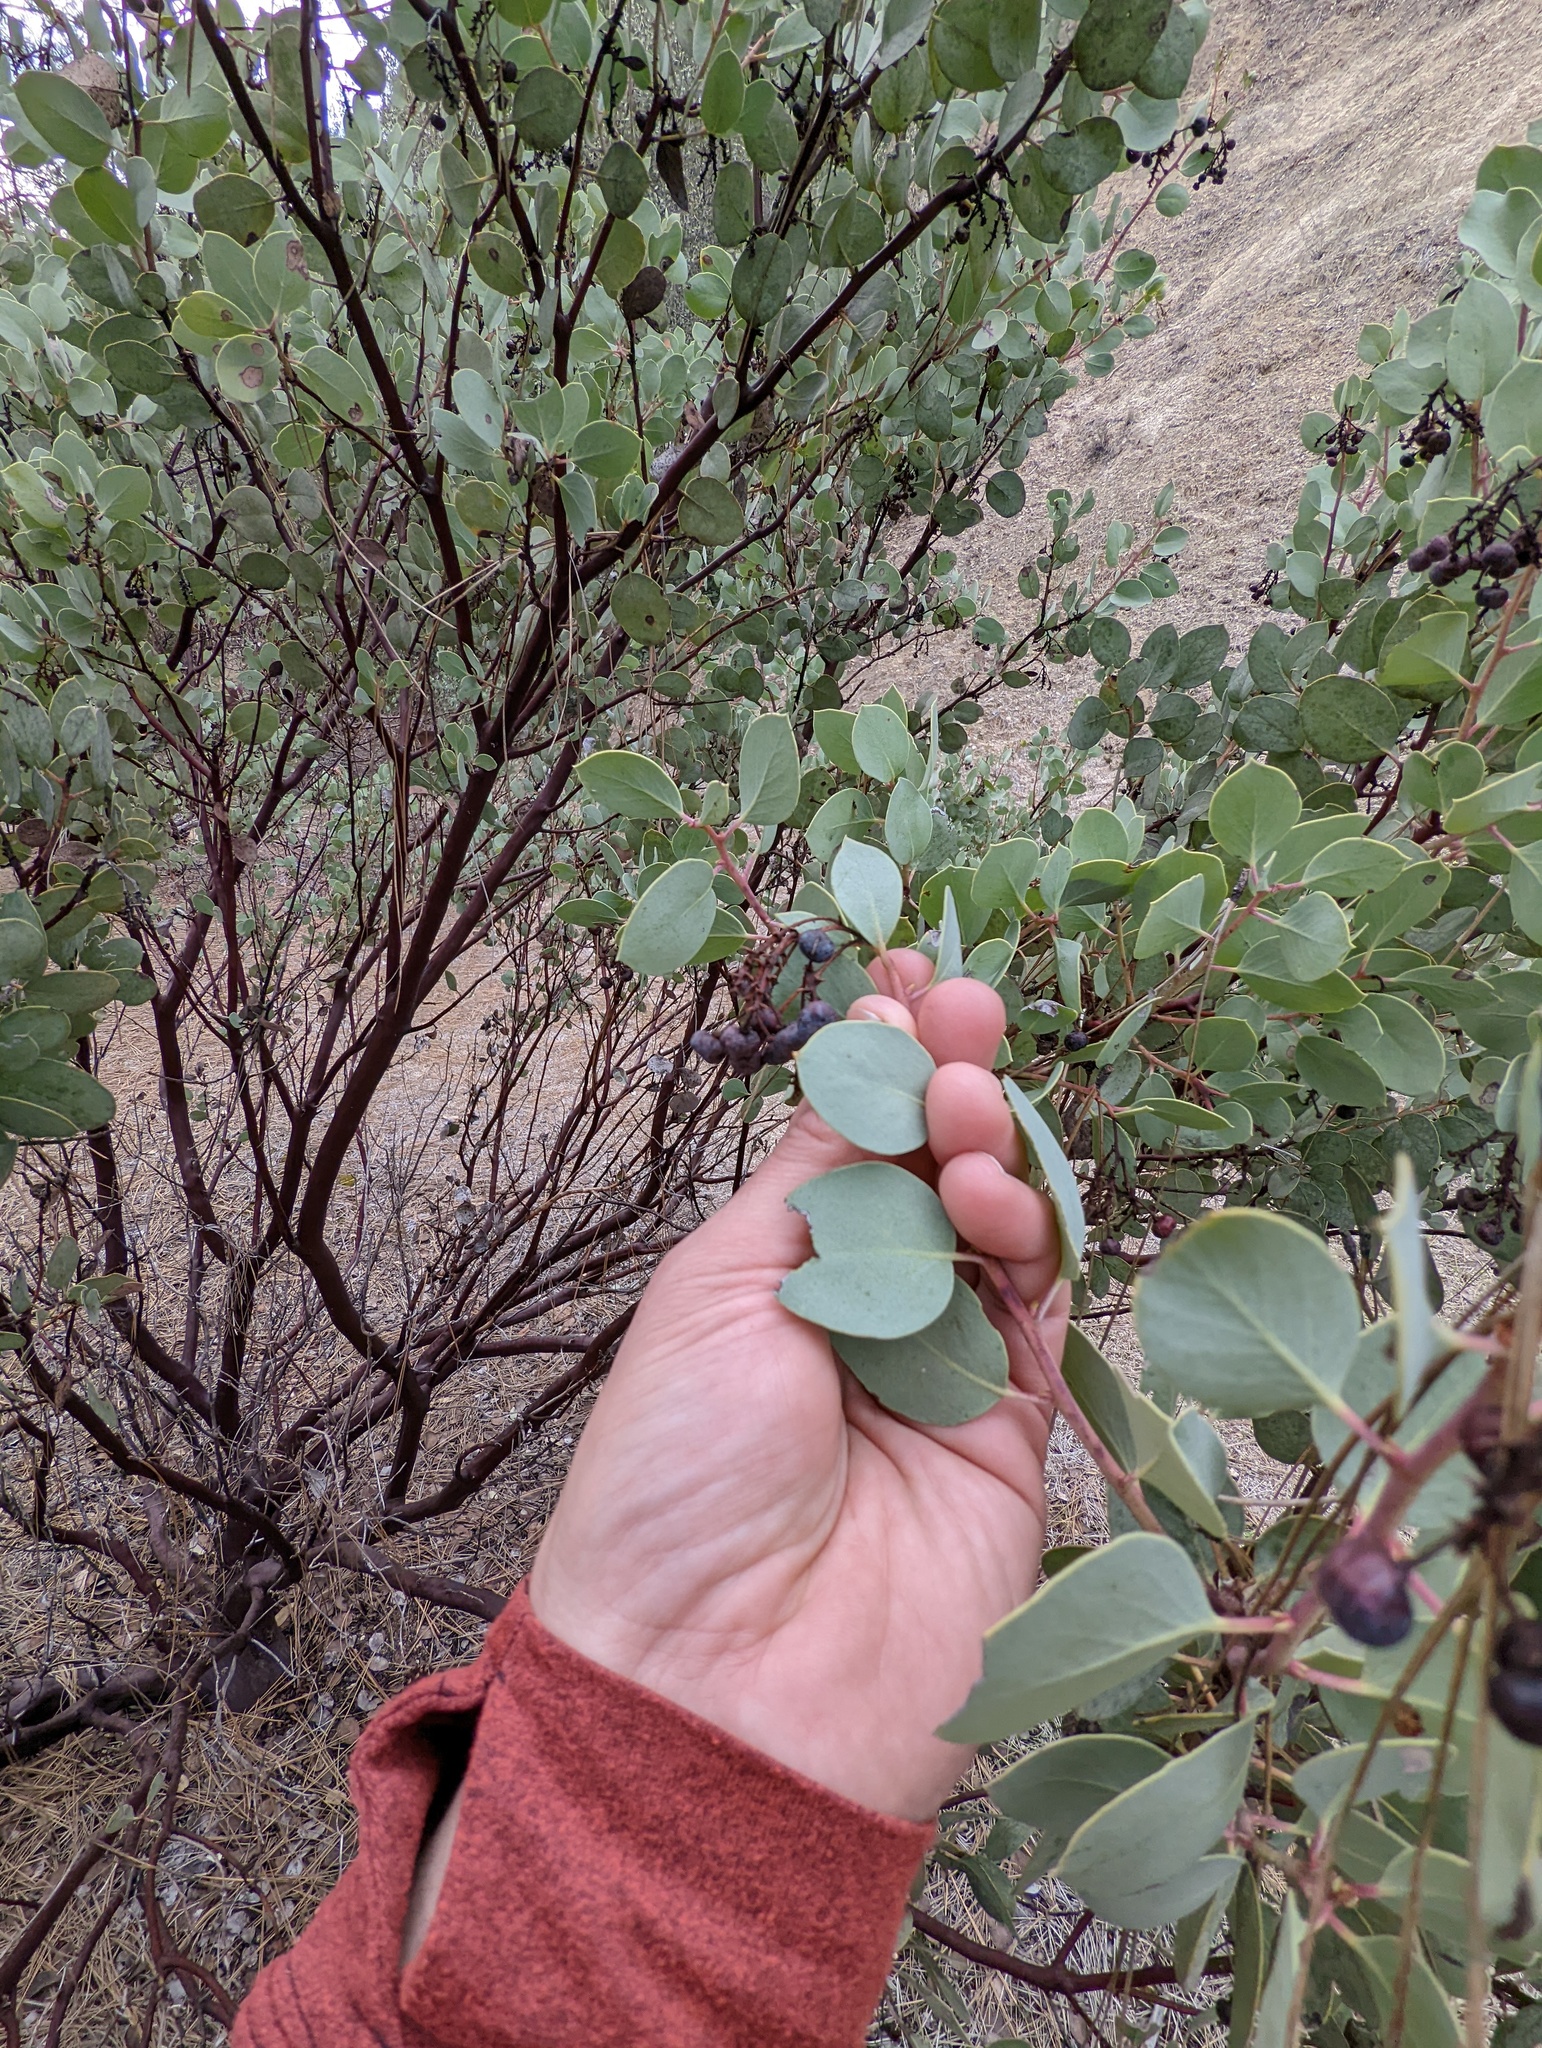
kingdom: Plantae
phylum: Tracheophyta
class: Magnoliopsida
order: Ericales
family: Ericaceae
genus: Arctostaphylos
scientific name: Arctostaphylos mewukka
